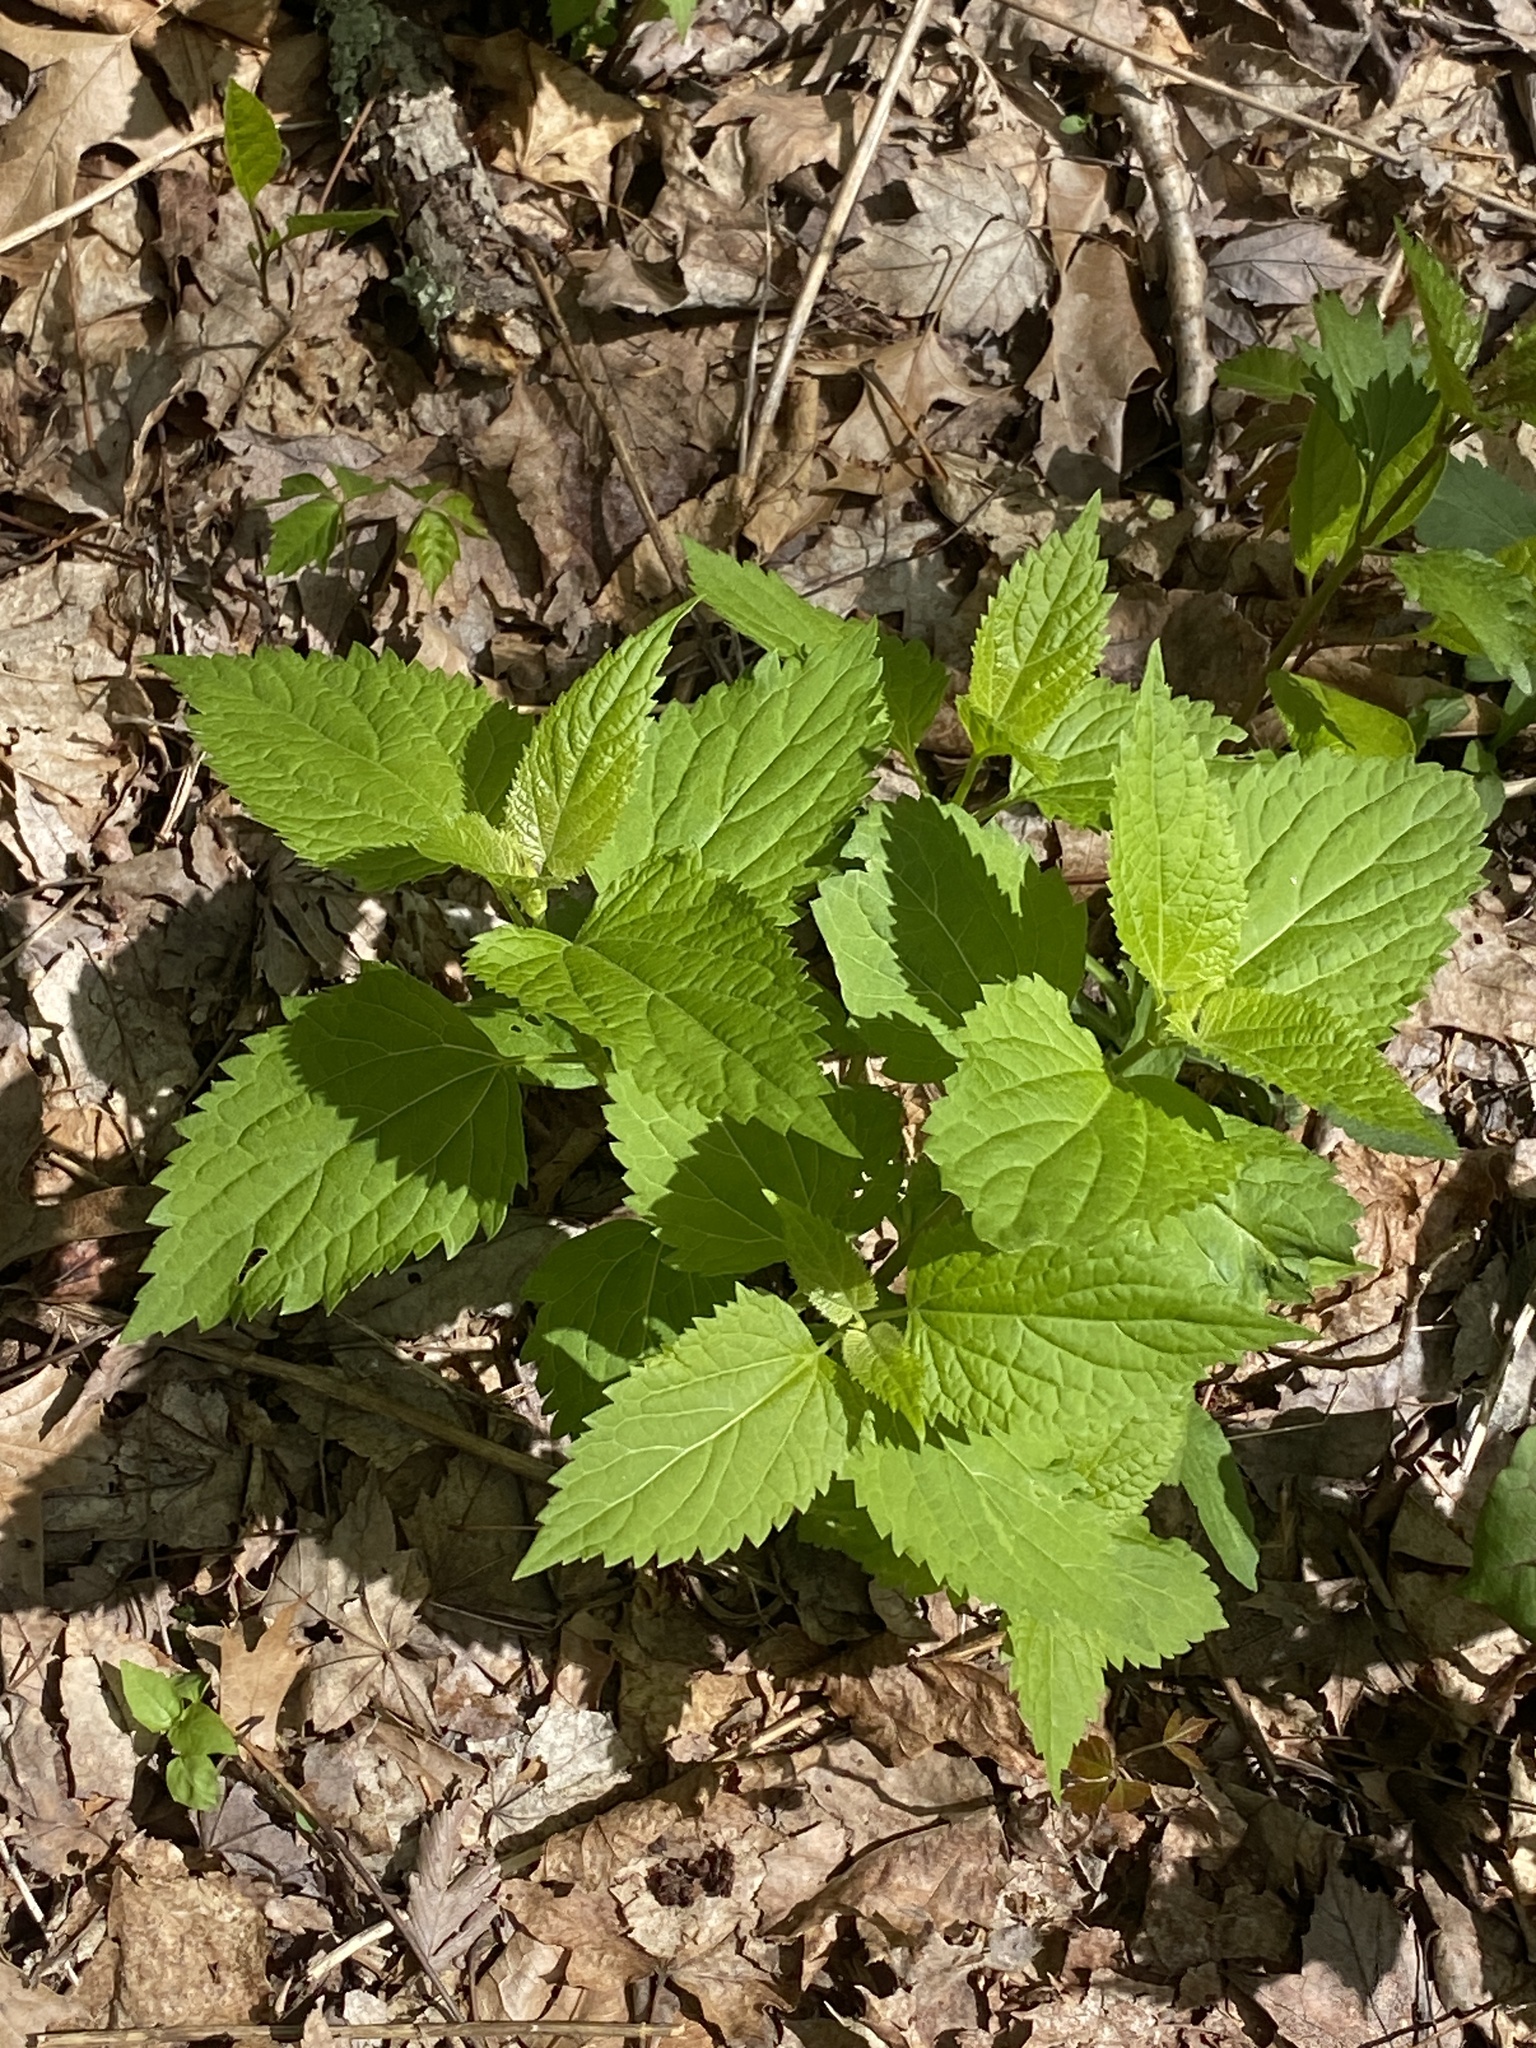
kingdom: Plantae
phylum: Tracheophyta
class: Magnoliopsida
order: Asterales
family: Asteraceae
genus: Ageratina
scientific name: Ageratina altissima
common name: White snakeroot
